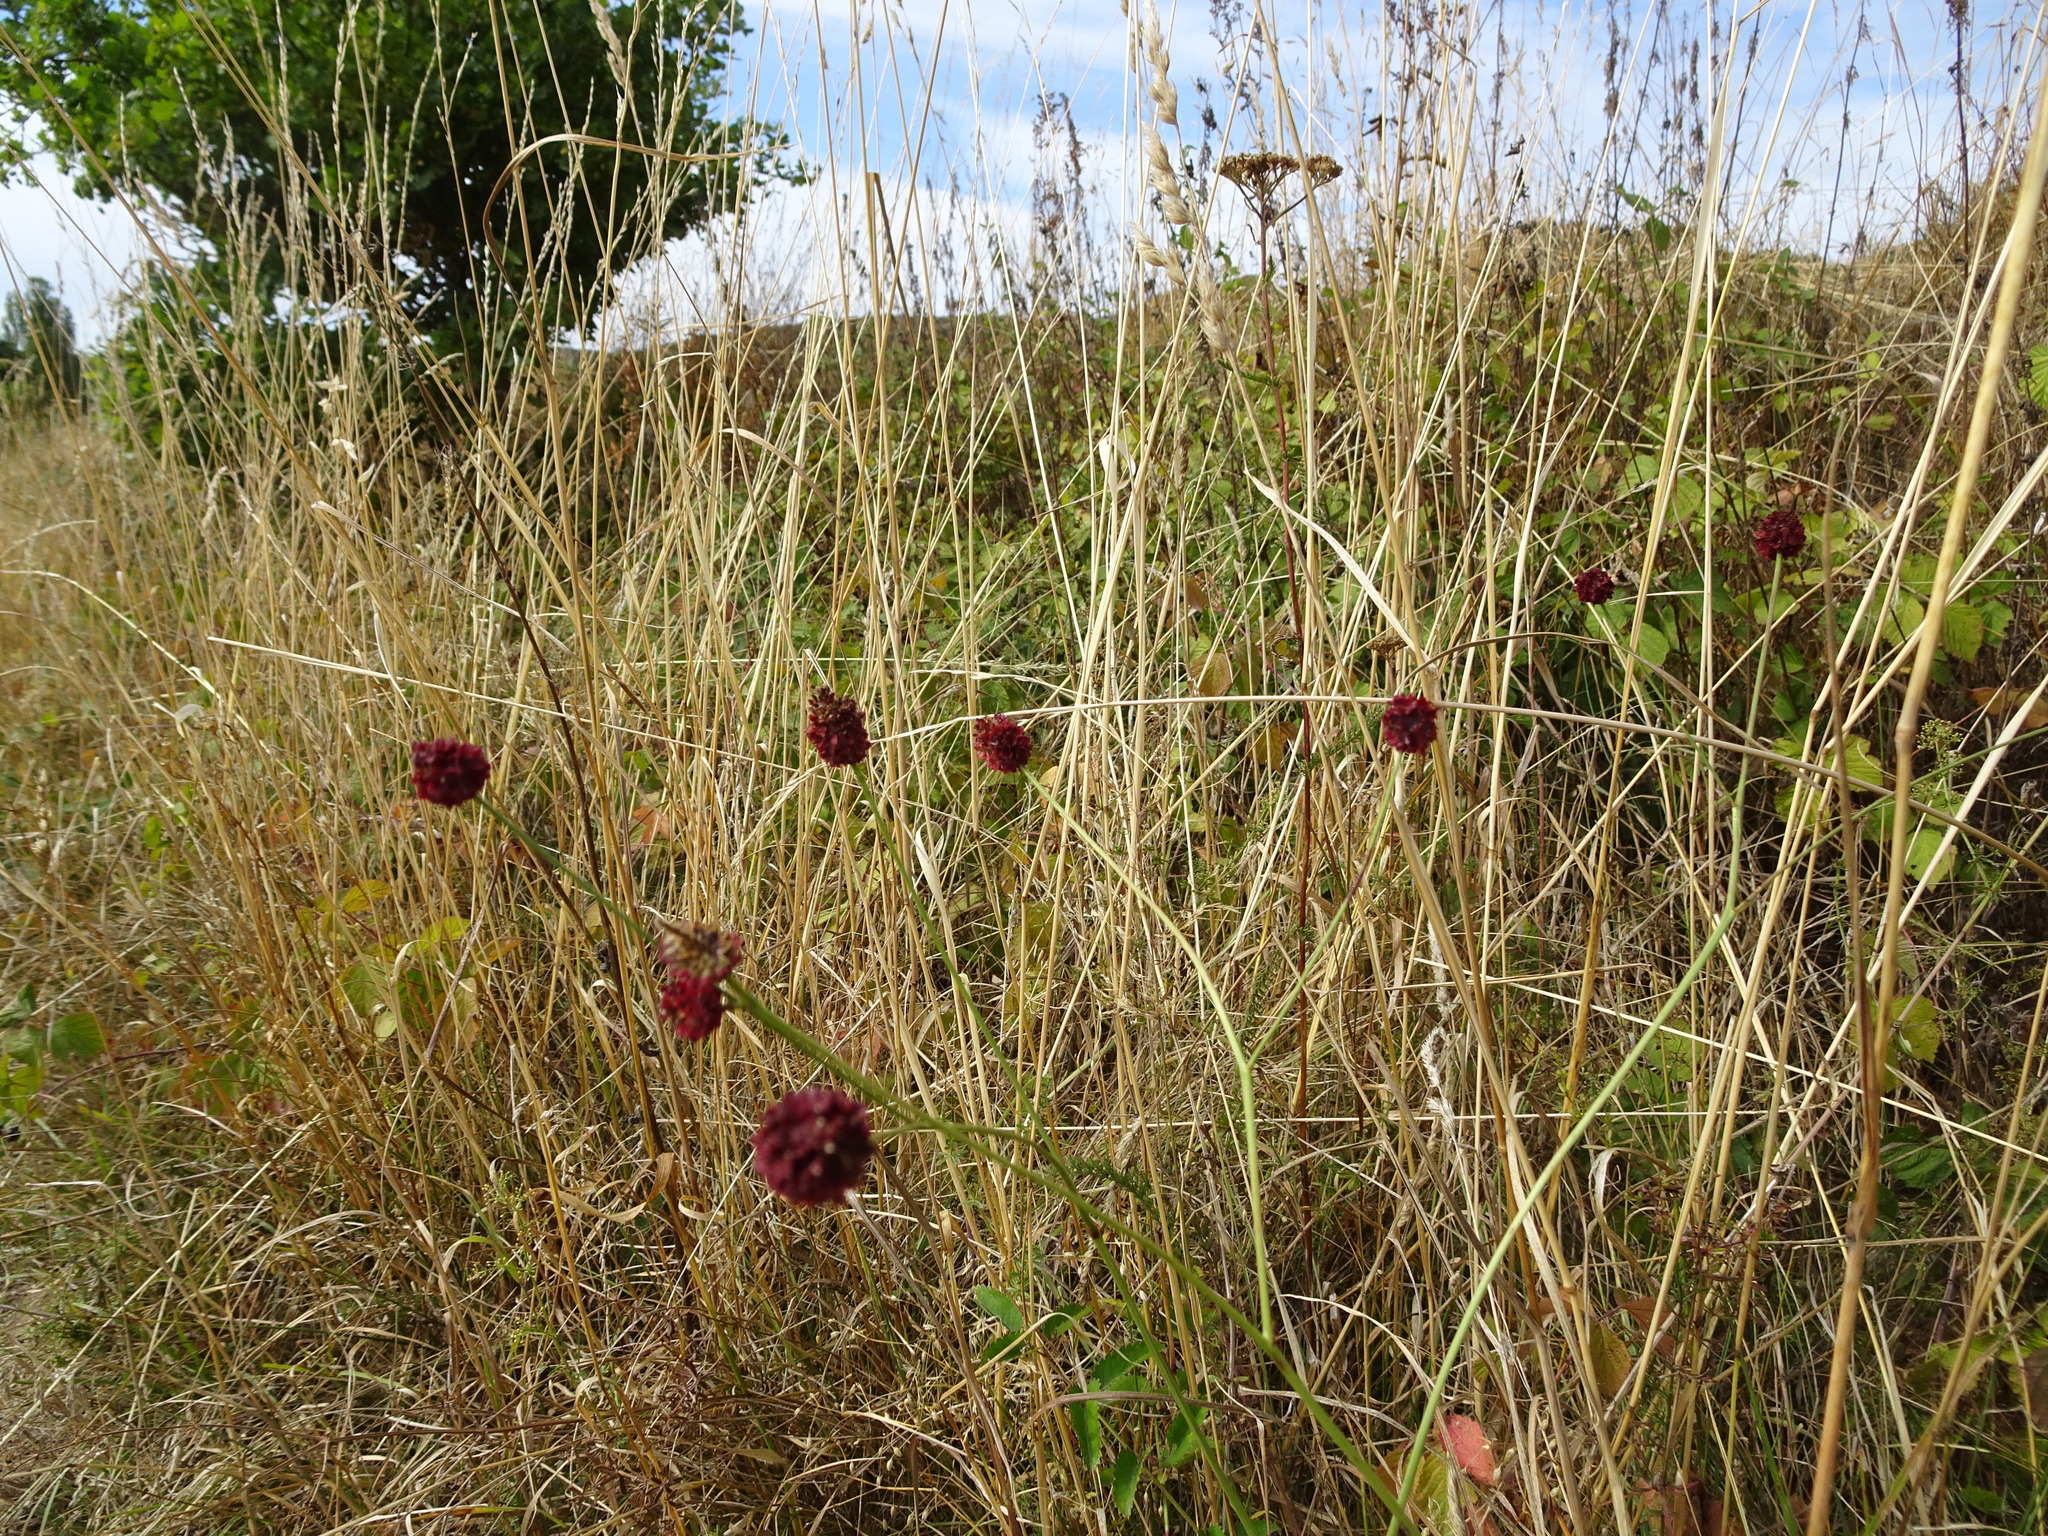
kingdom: Plantae
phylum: Tracheophyta
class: Magnoliopsida
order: Rosales
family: Rosaceae
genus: Sanguisorba
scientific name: Sanguisorba officinalis
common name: Great burnet
